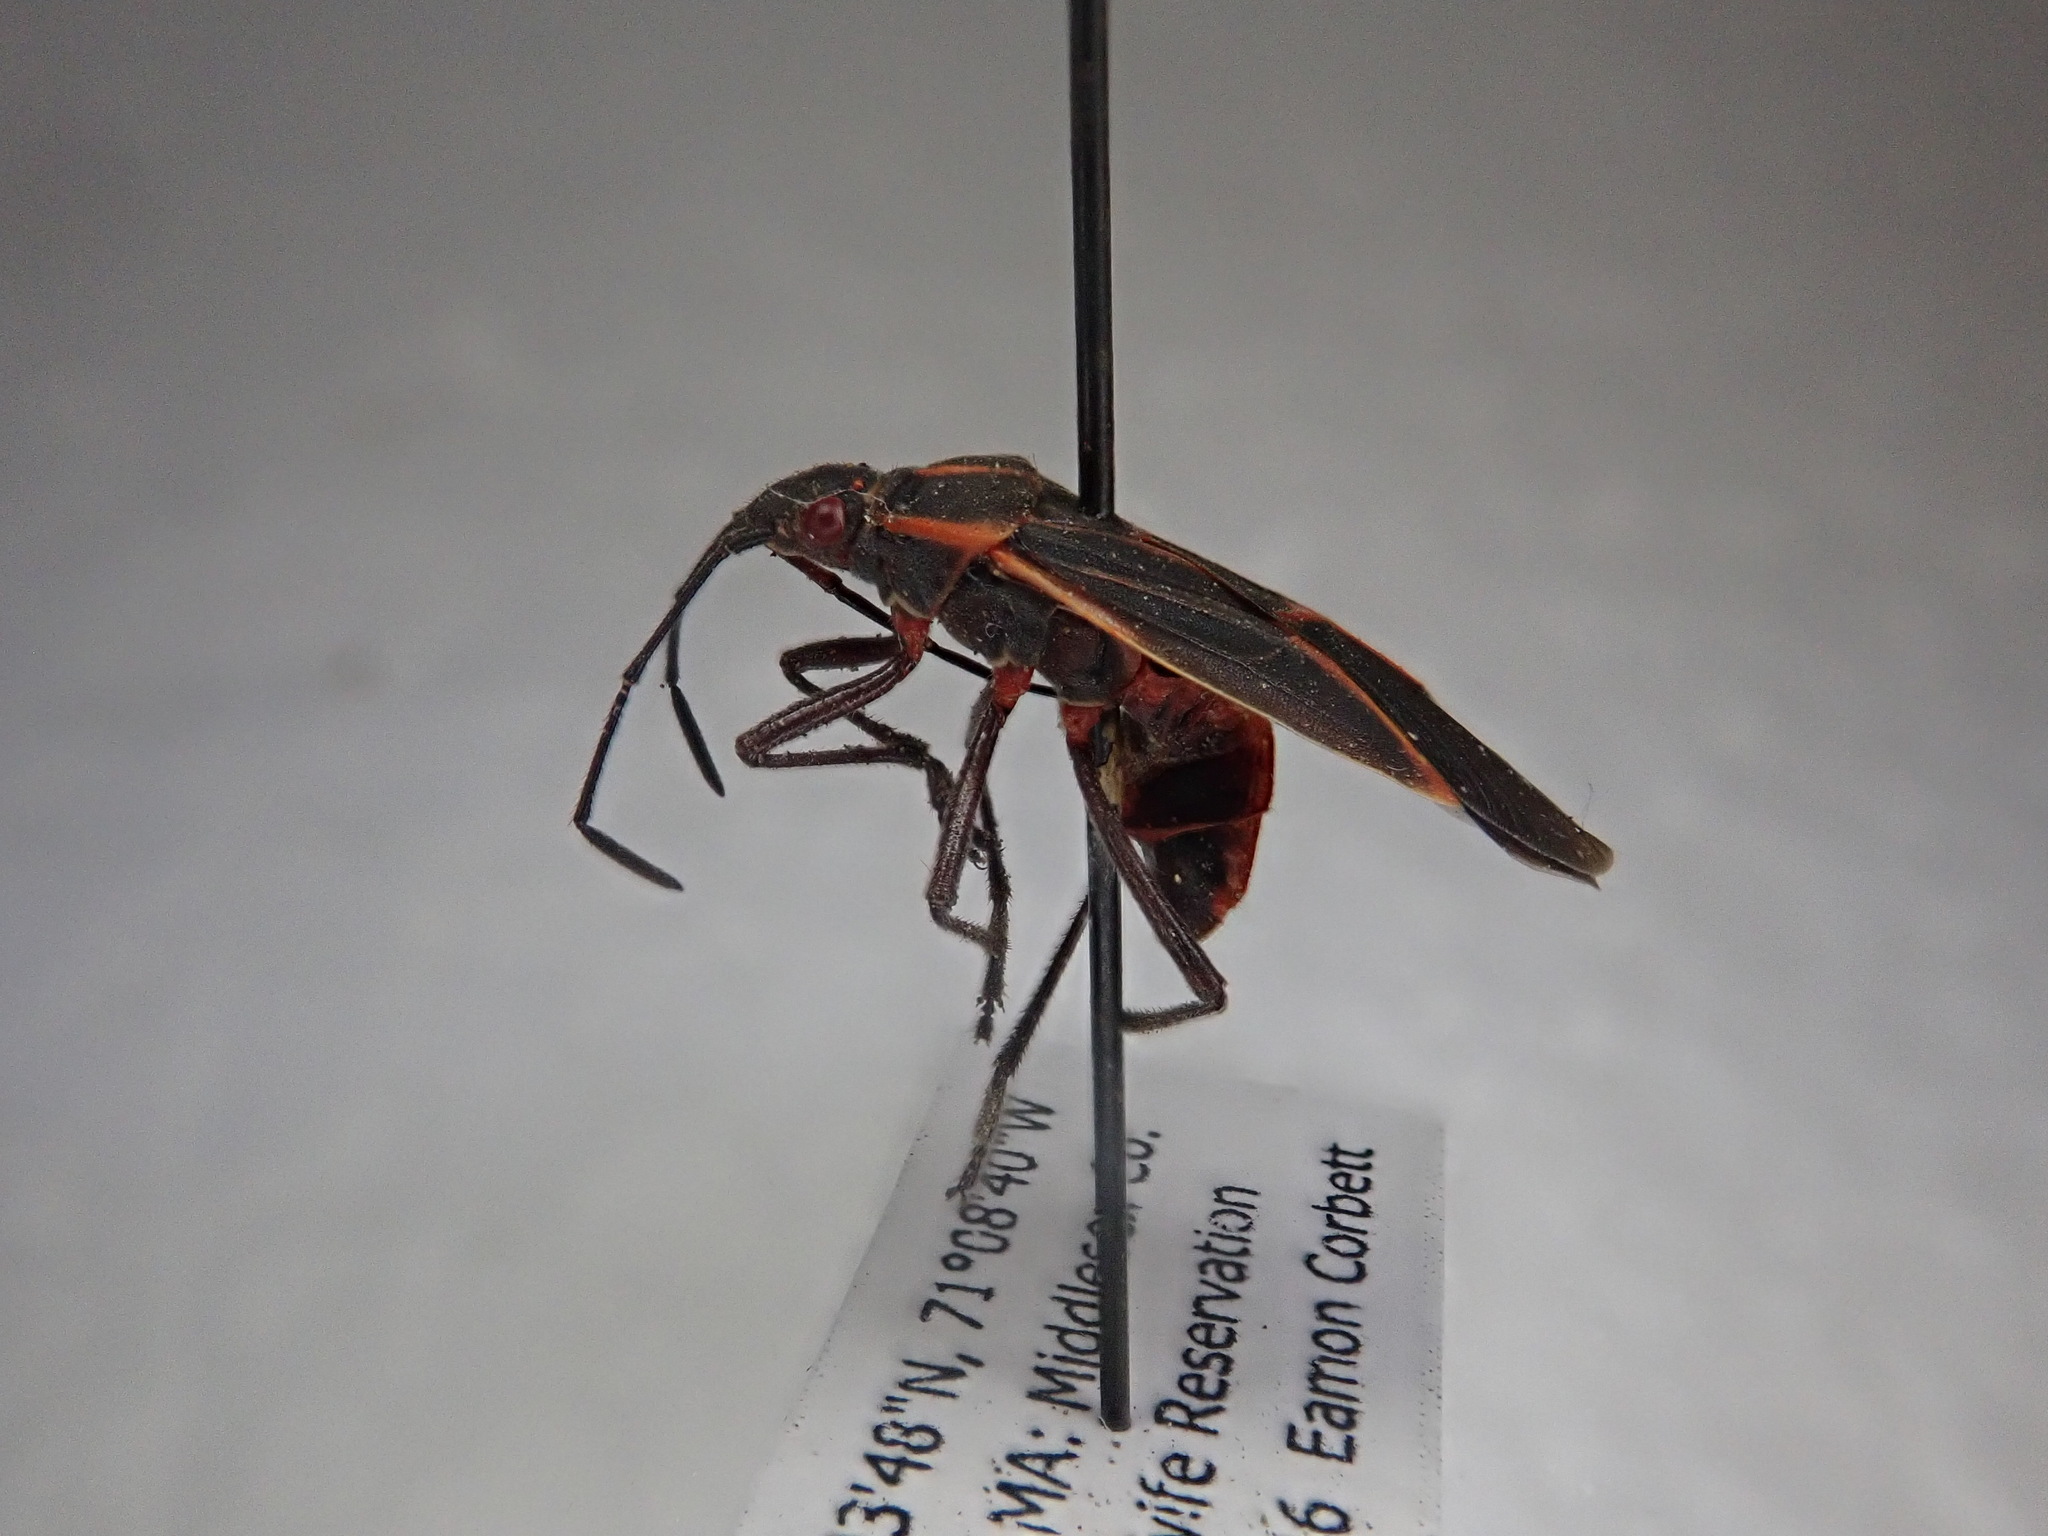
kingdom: Animalia
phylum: Arthropoda
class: Insecta
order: Hemiptera
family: Rhopalidae
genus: Boisea
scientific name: Boisea trivittata
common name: Boxelder bug
